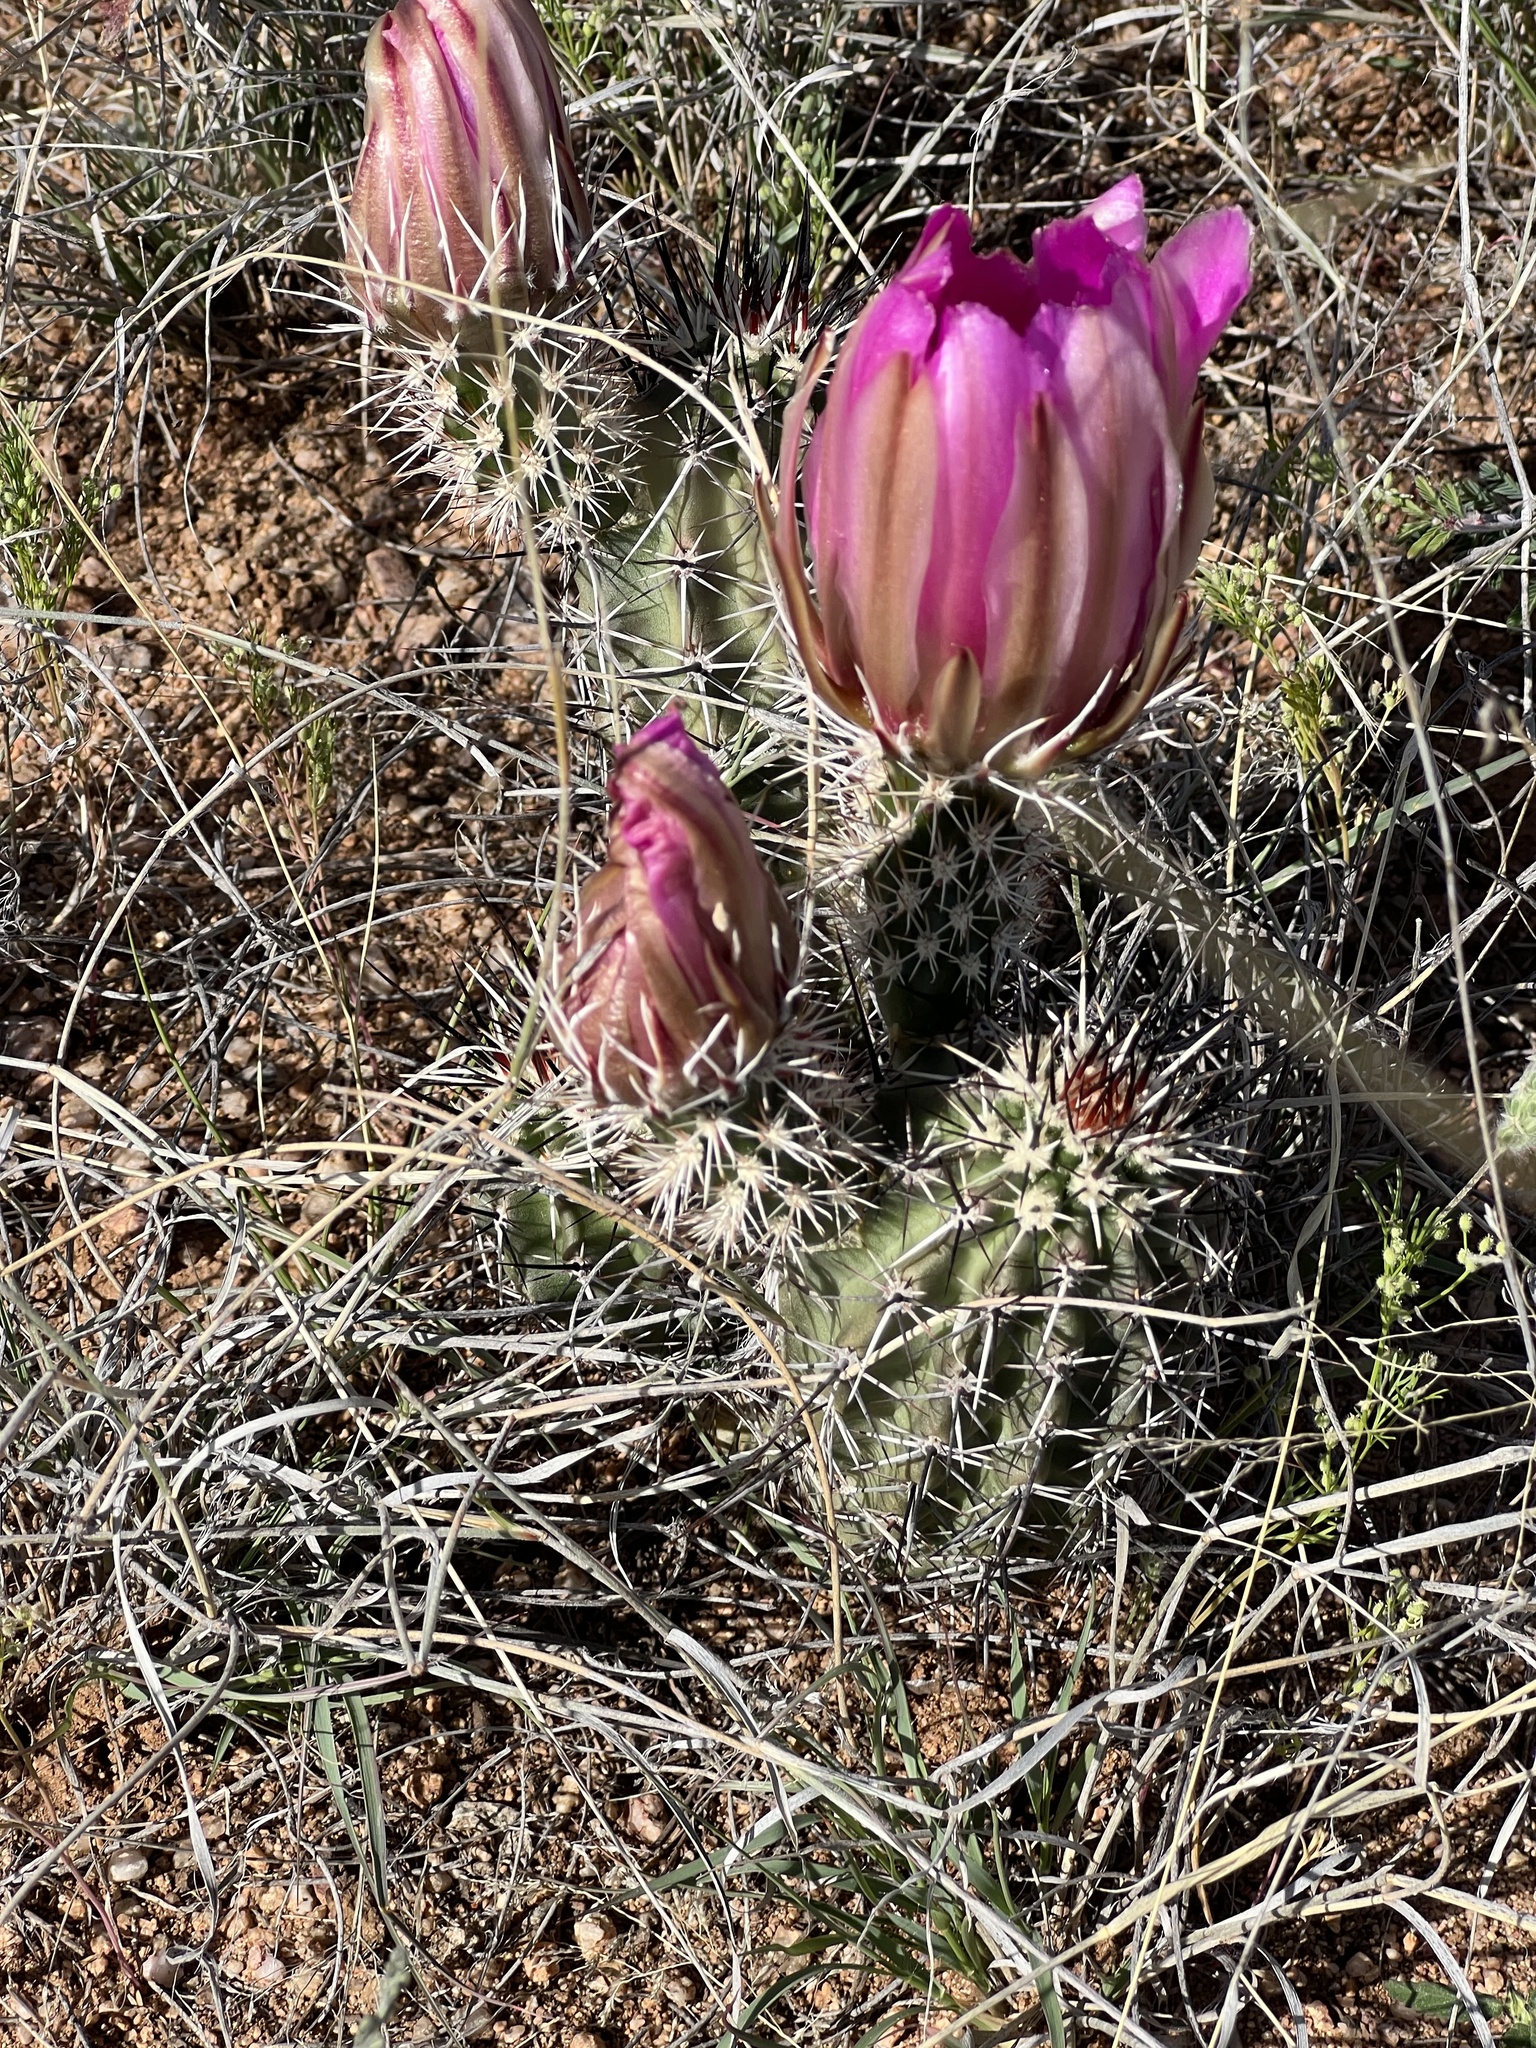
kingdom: Plantae
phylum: Tracheophyta
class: Magnoliopsida
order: Caryophyllales
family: Cactaceae
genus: Echinocereus
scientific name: Echinocereus fasciculatus
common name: Bundle hedgehog
